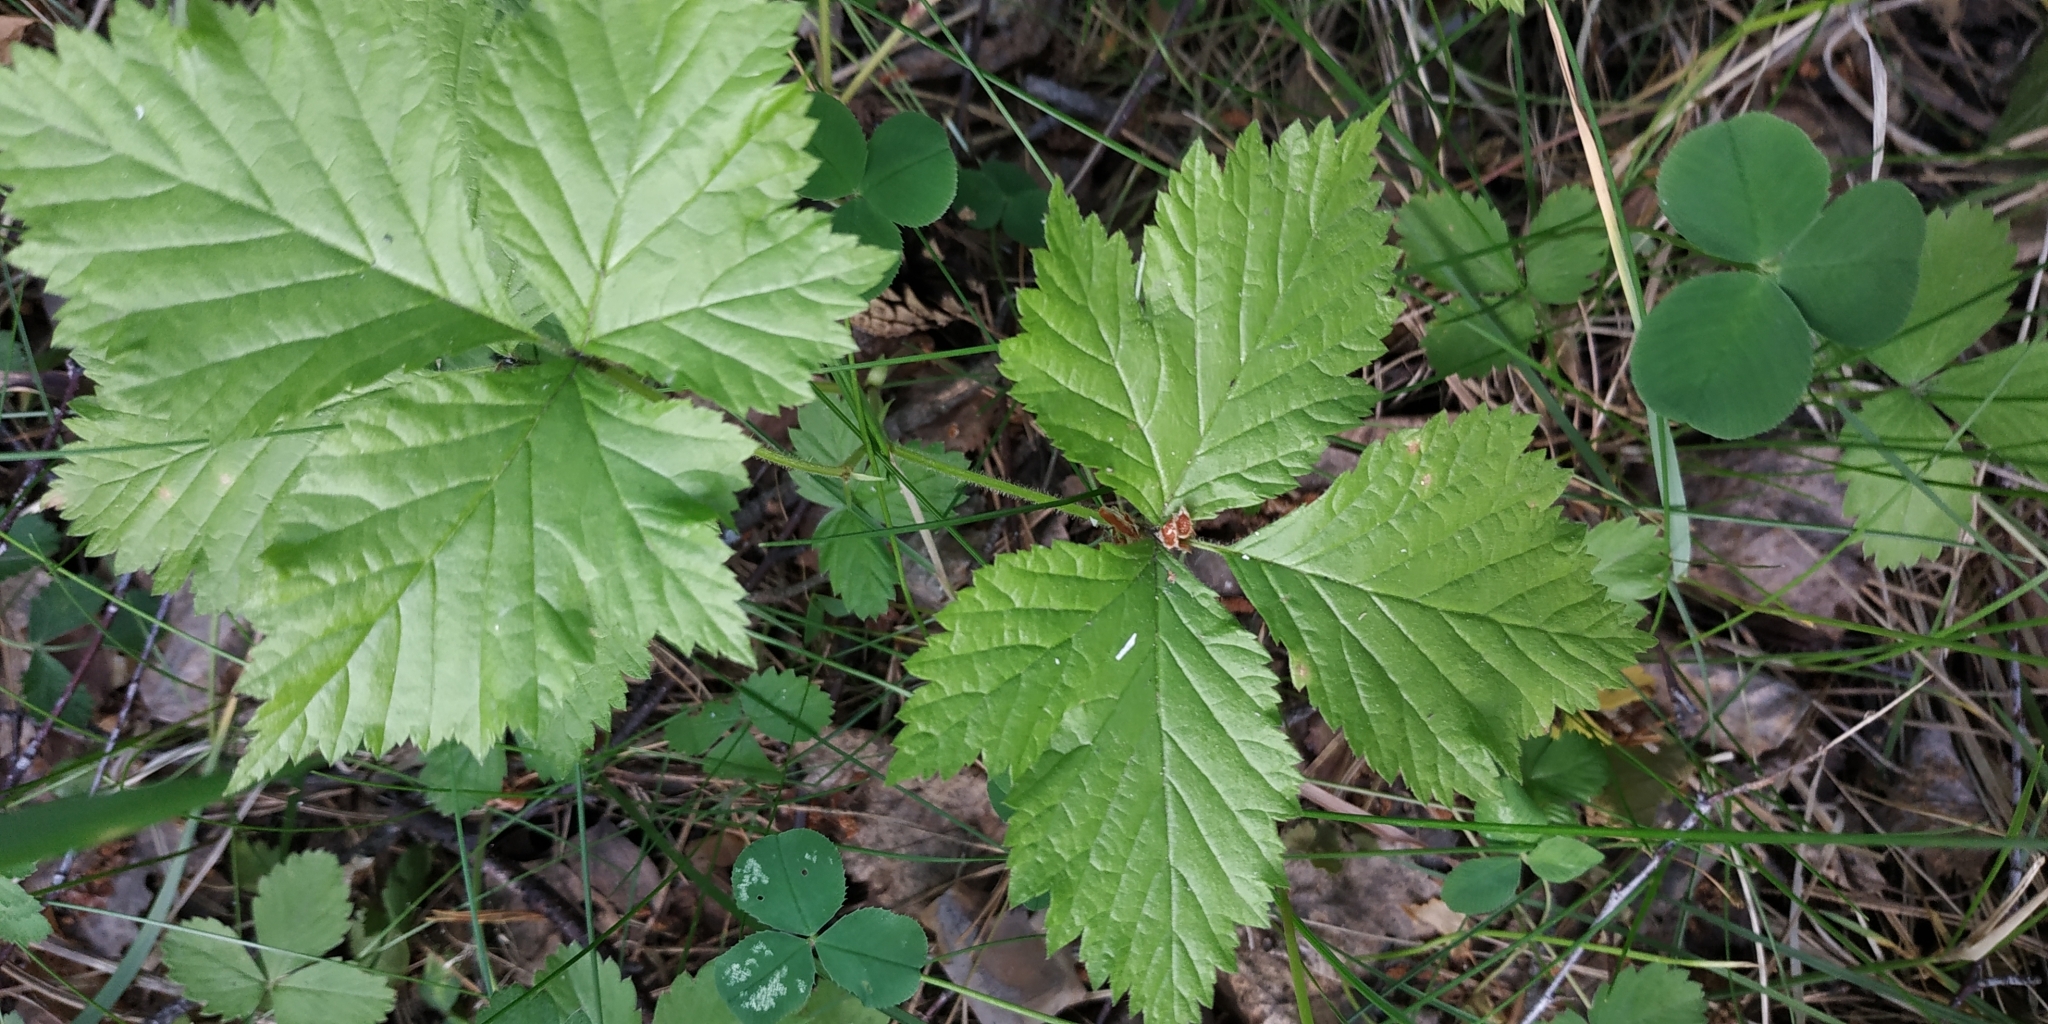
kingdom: Plantae
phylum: Tracheophyta
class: Magnoliopsida
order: Rosales
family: Rosaceae
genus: Rubus
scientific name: Rubus saxatilis
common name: Stone bramble
